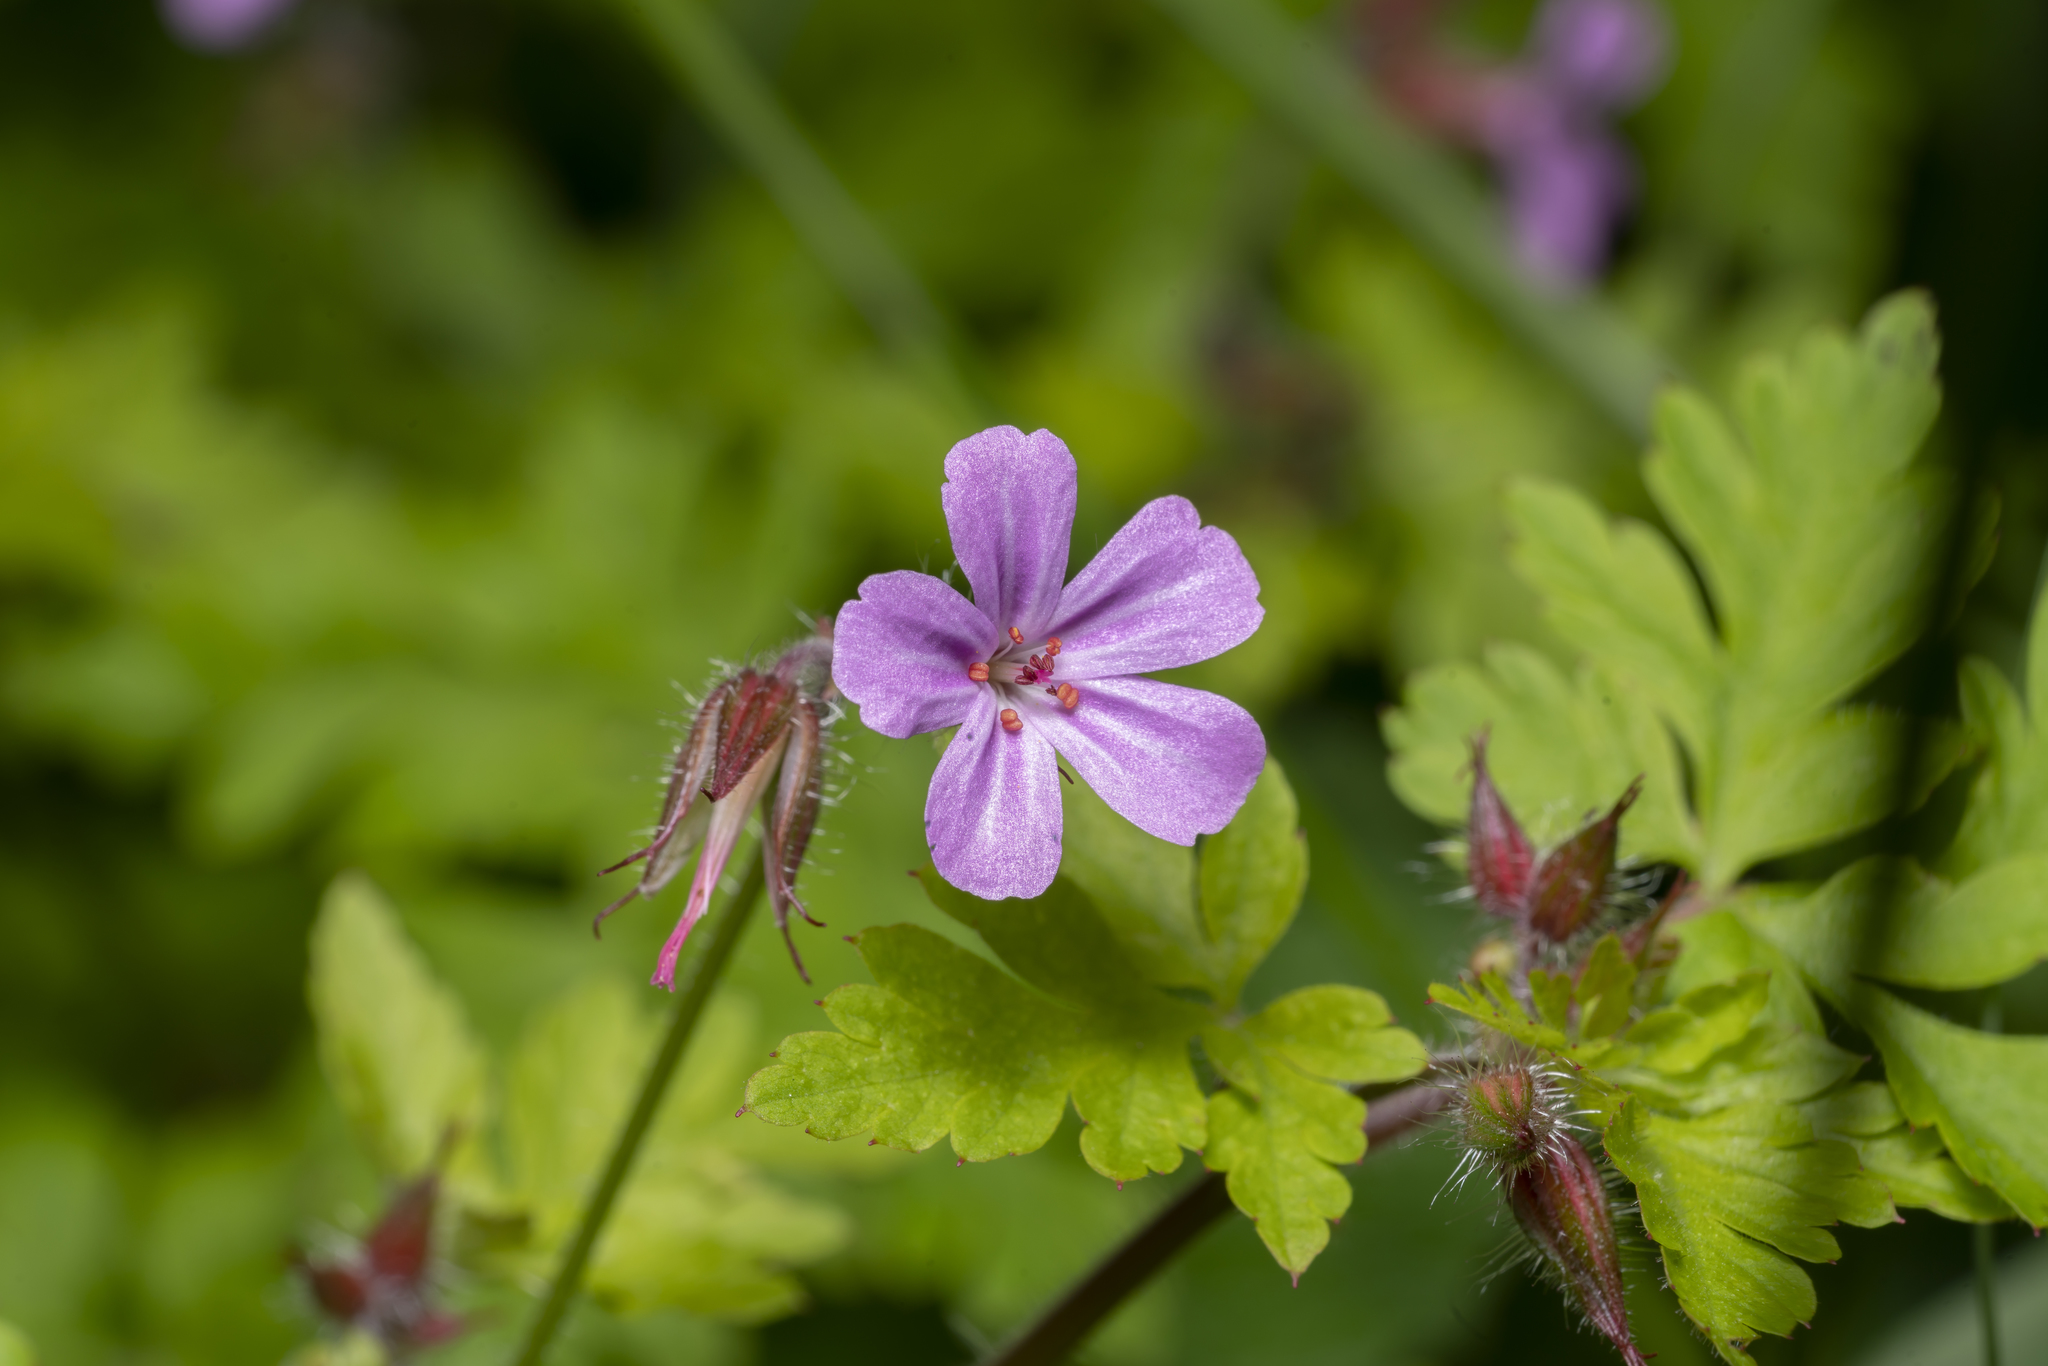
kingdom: Plantae
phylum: Tracheophyta
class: Magnoliopsida
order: Geraniales
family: Geraniaceae
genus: Geranium
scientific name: Geranium robertianum
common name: Herb-robert
